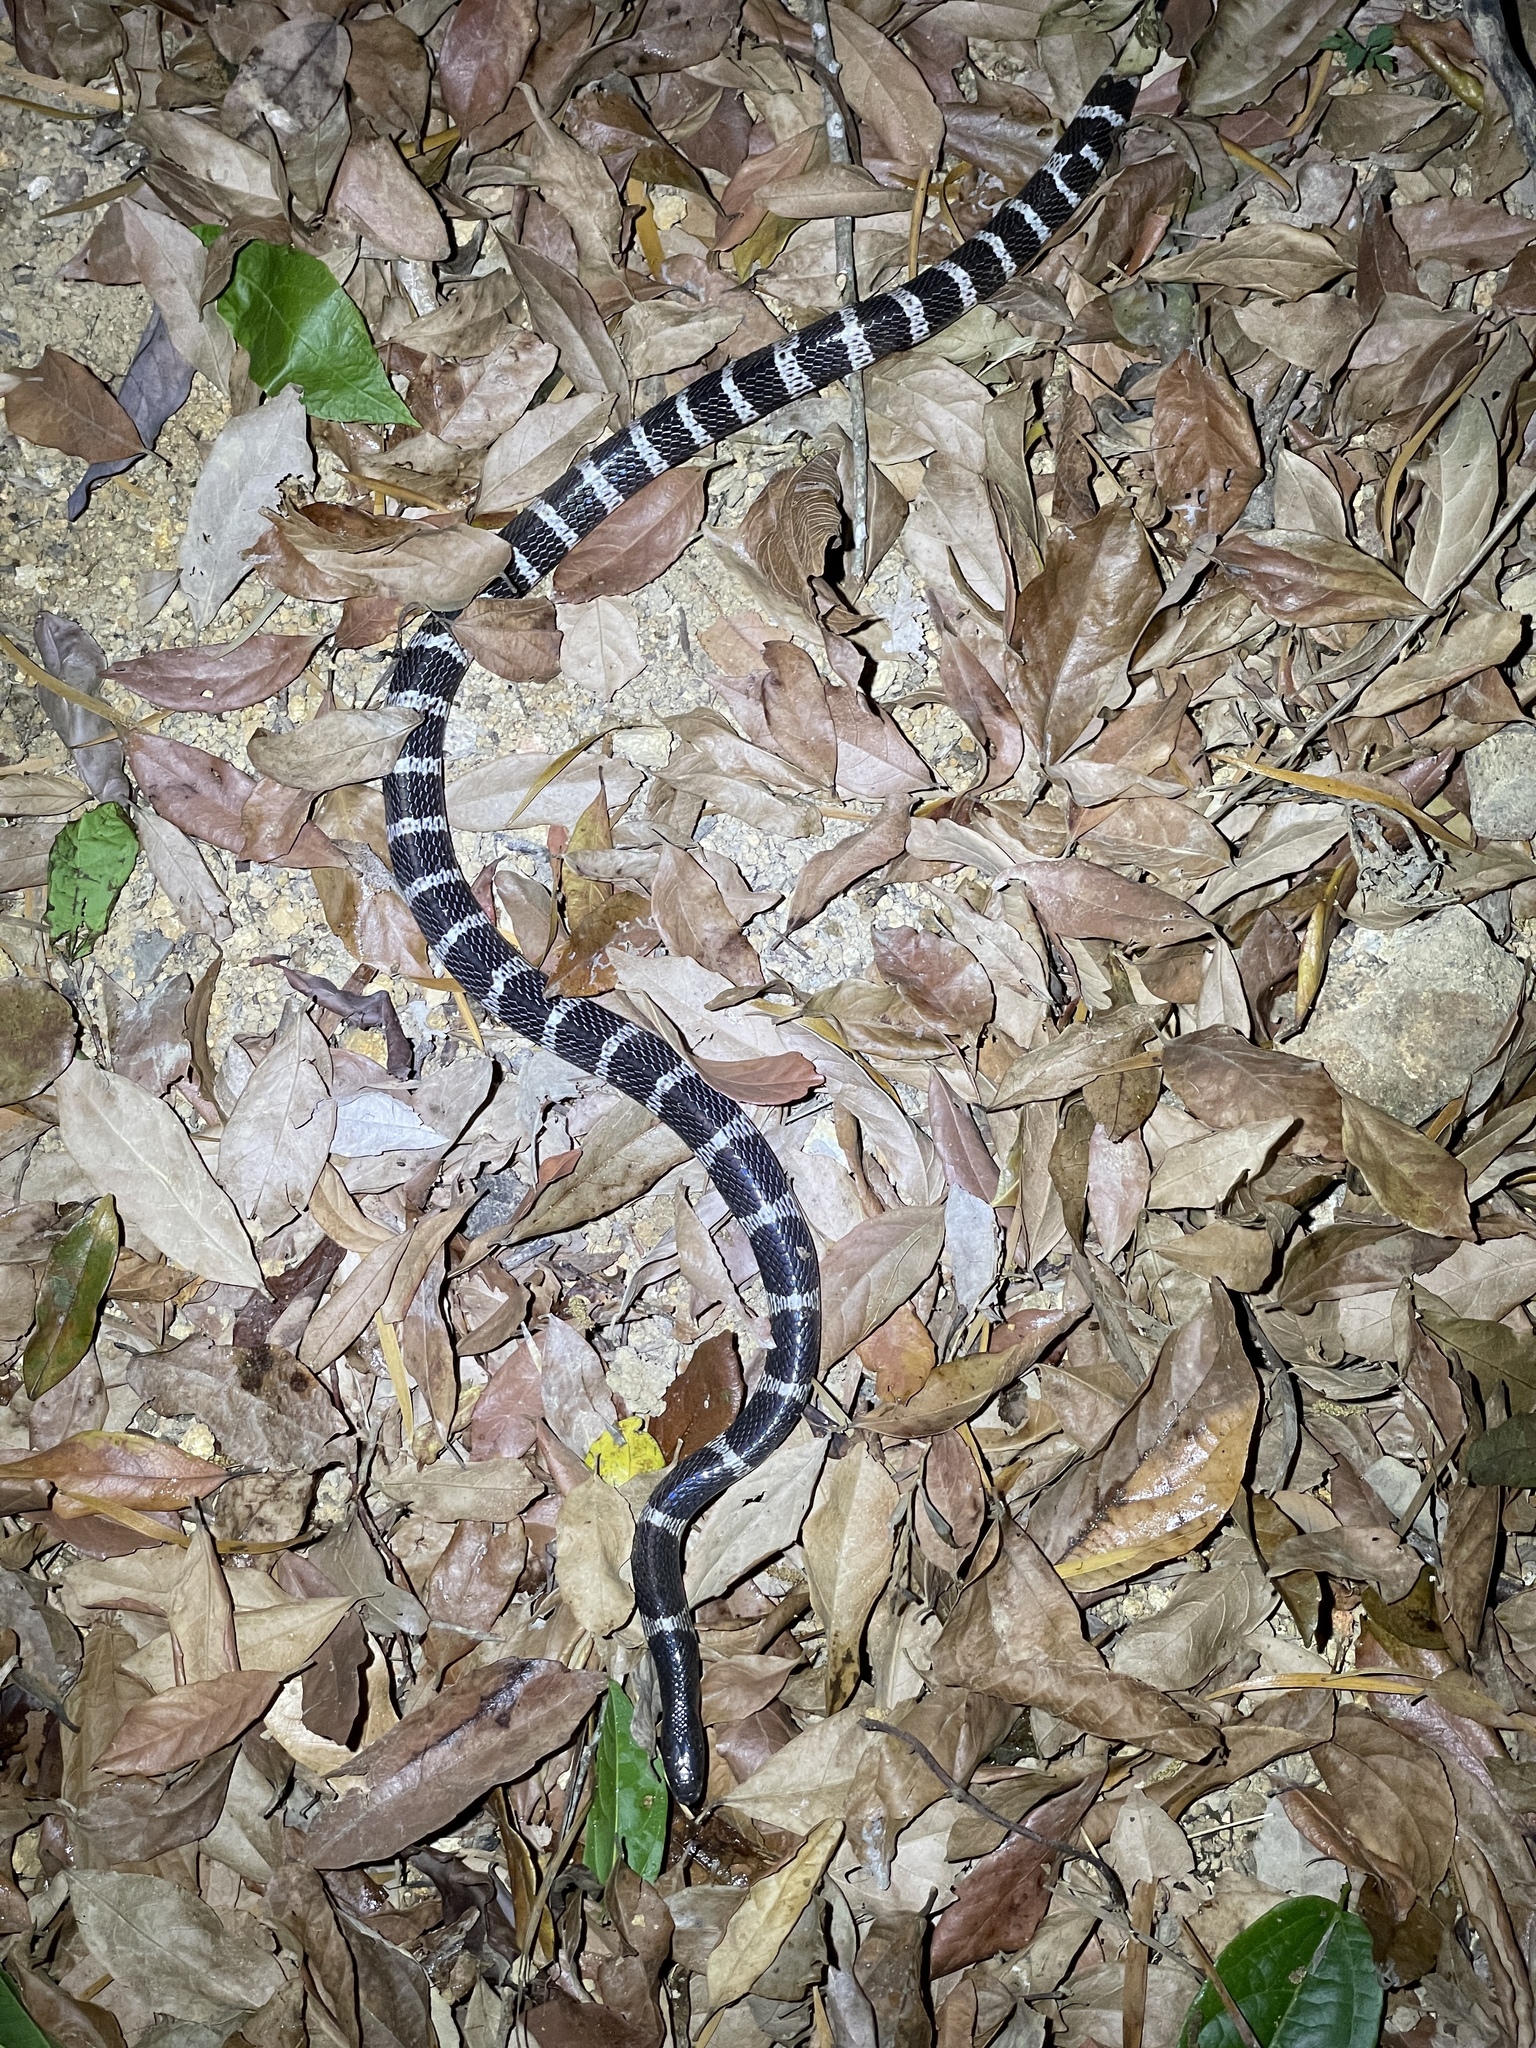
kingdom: Animalia
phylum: Chordata
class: Squamata
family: Elapidae
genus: Bungarus
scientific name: Bungarus multicinctus
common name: Many-banded krait
